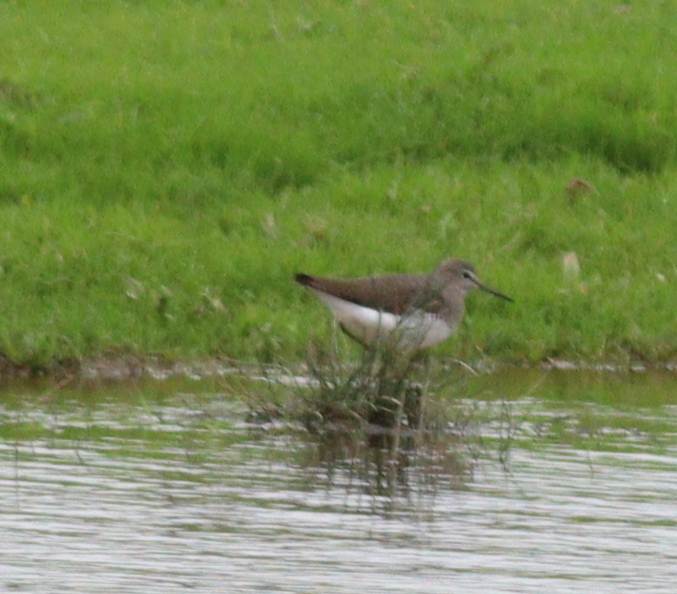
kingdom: Animalia
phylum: Chordata
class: Aves
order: Charadriiformes
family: Scolopacidae
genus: Tringa
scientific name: Tringa ochropus
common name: Green sandpiper
